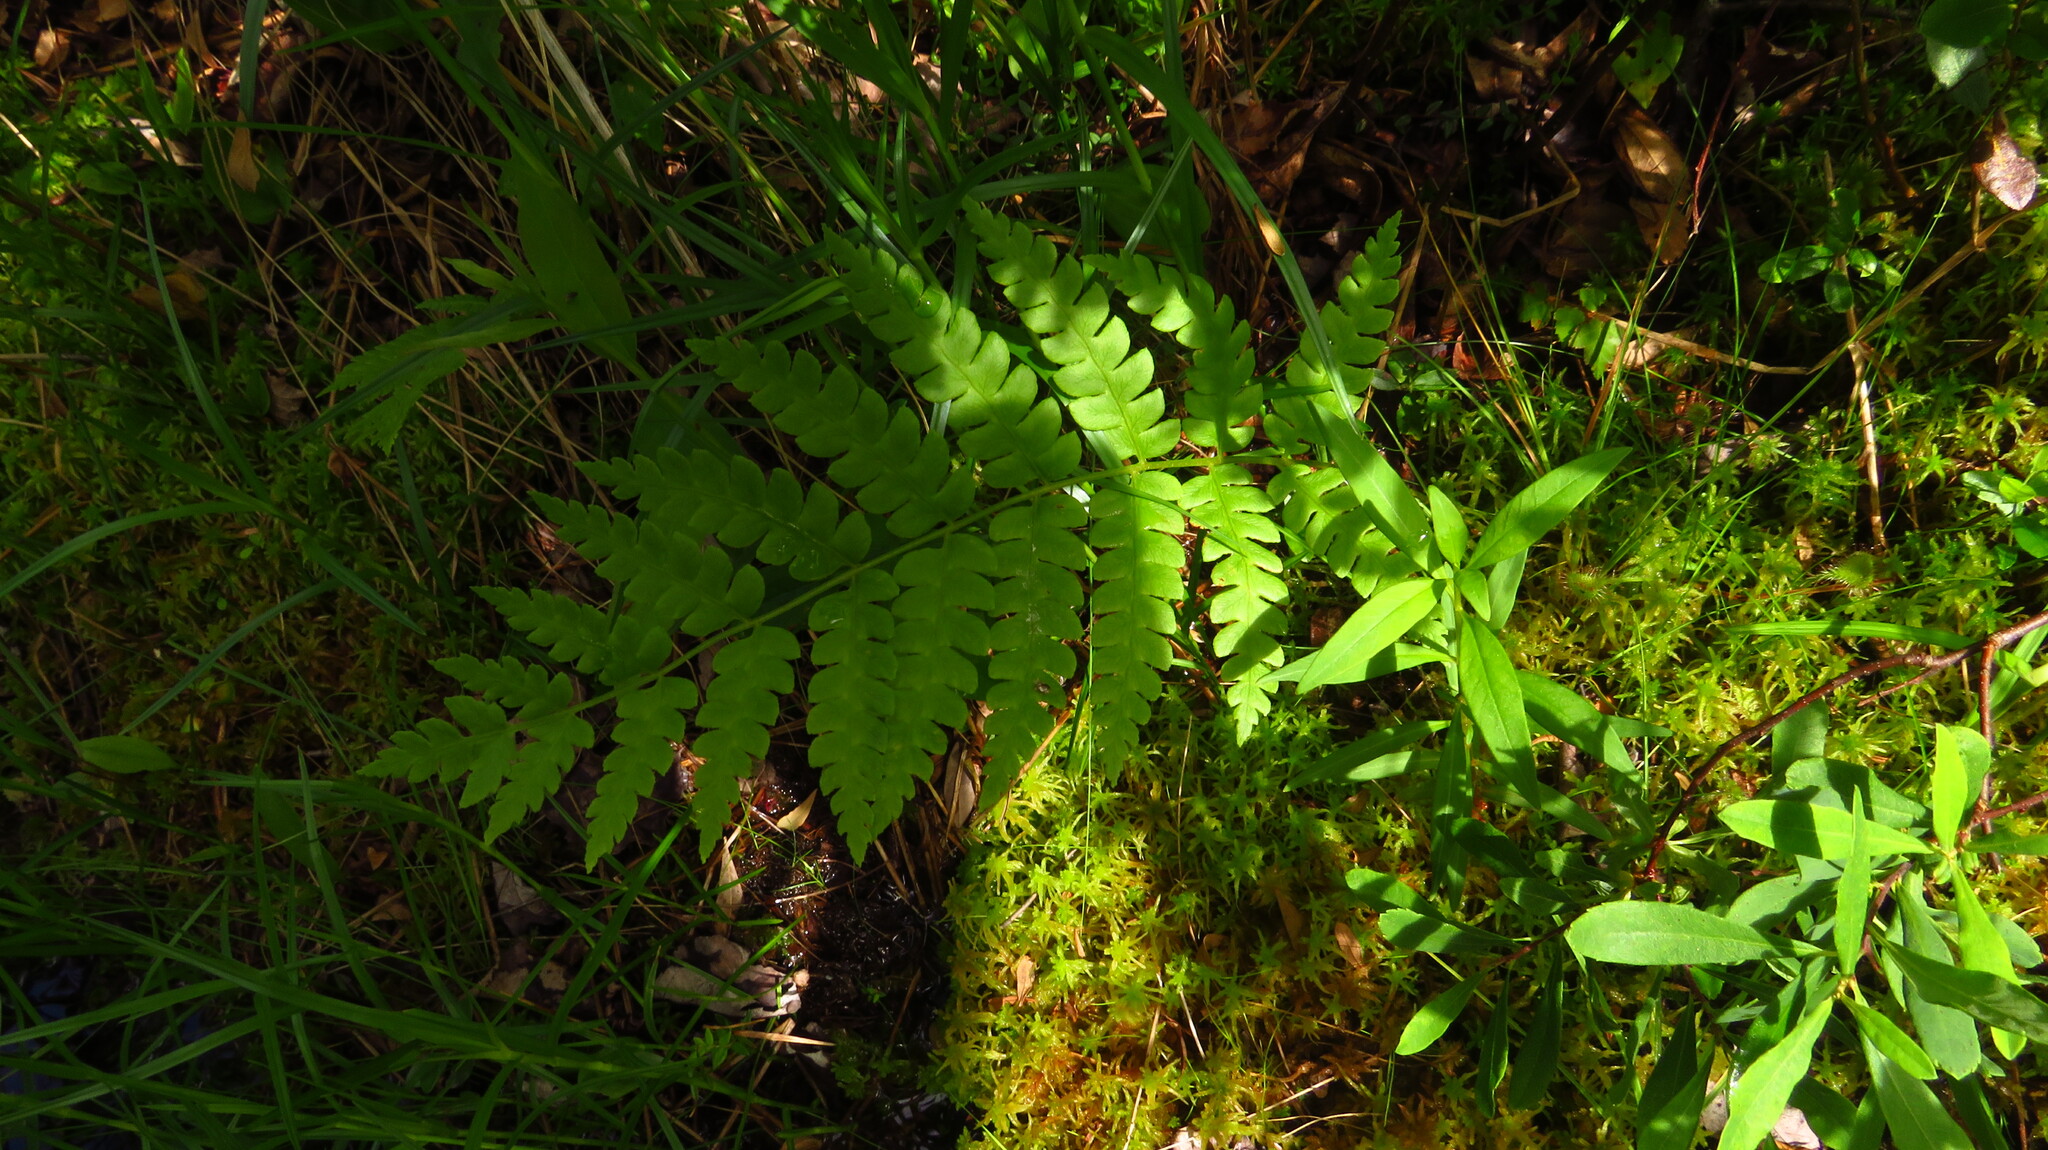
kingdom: Plantae
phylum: Tracheophyta
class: Polypodiopsida
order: Osmundales
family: Osmundaceae
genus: Osmundastrum
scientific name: Osmundastrum cinnamomeum
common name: Cinnamon fern
